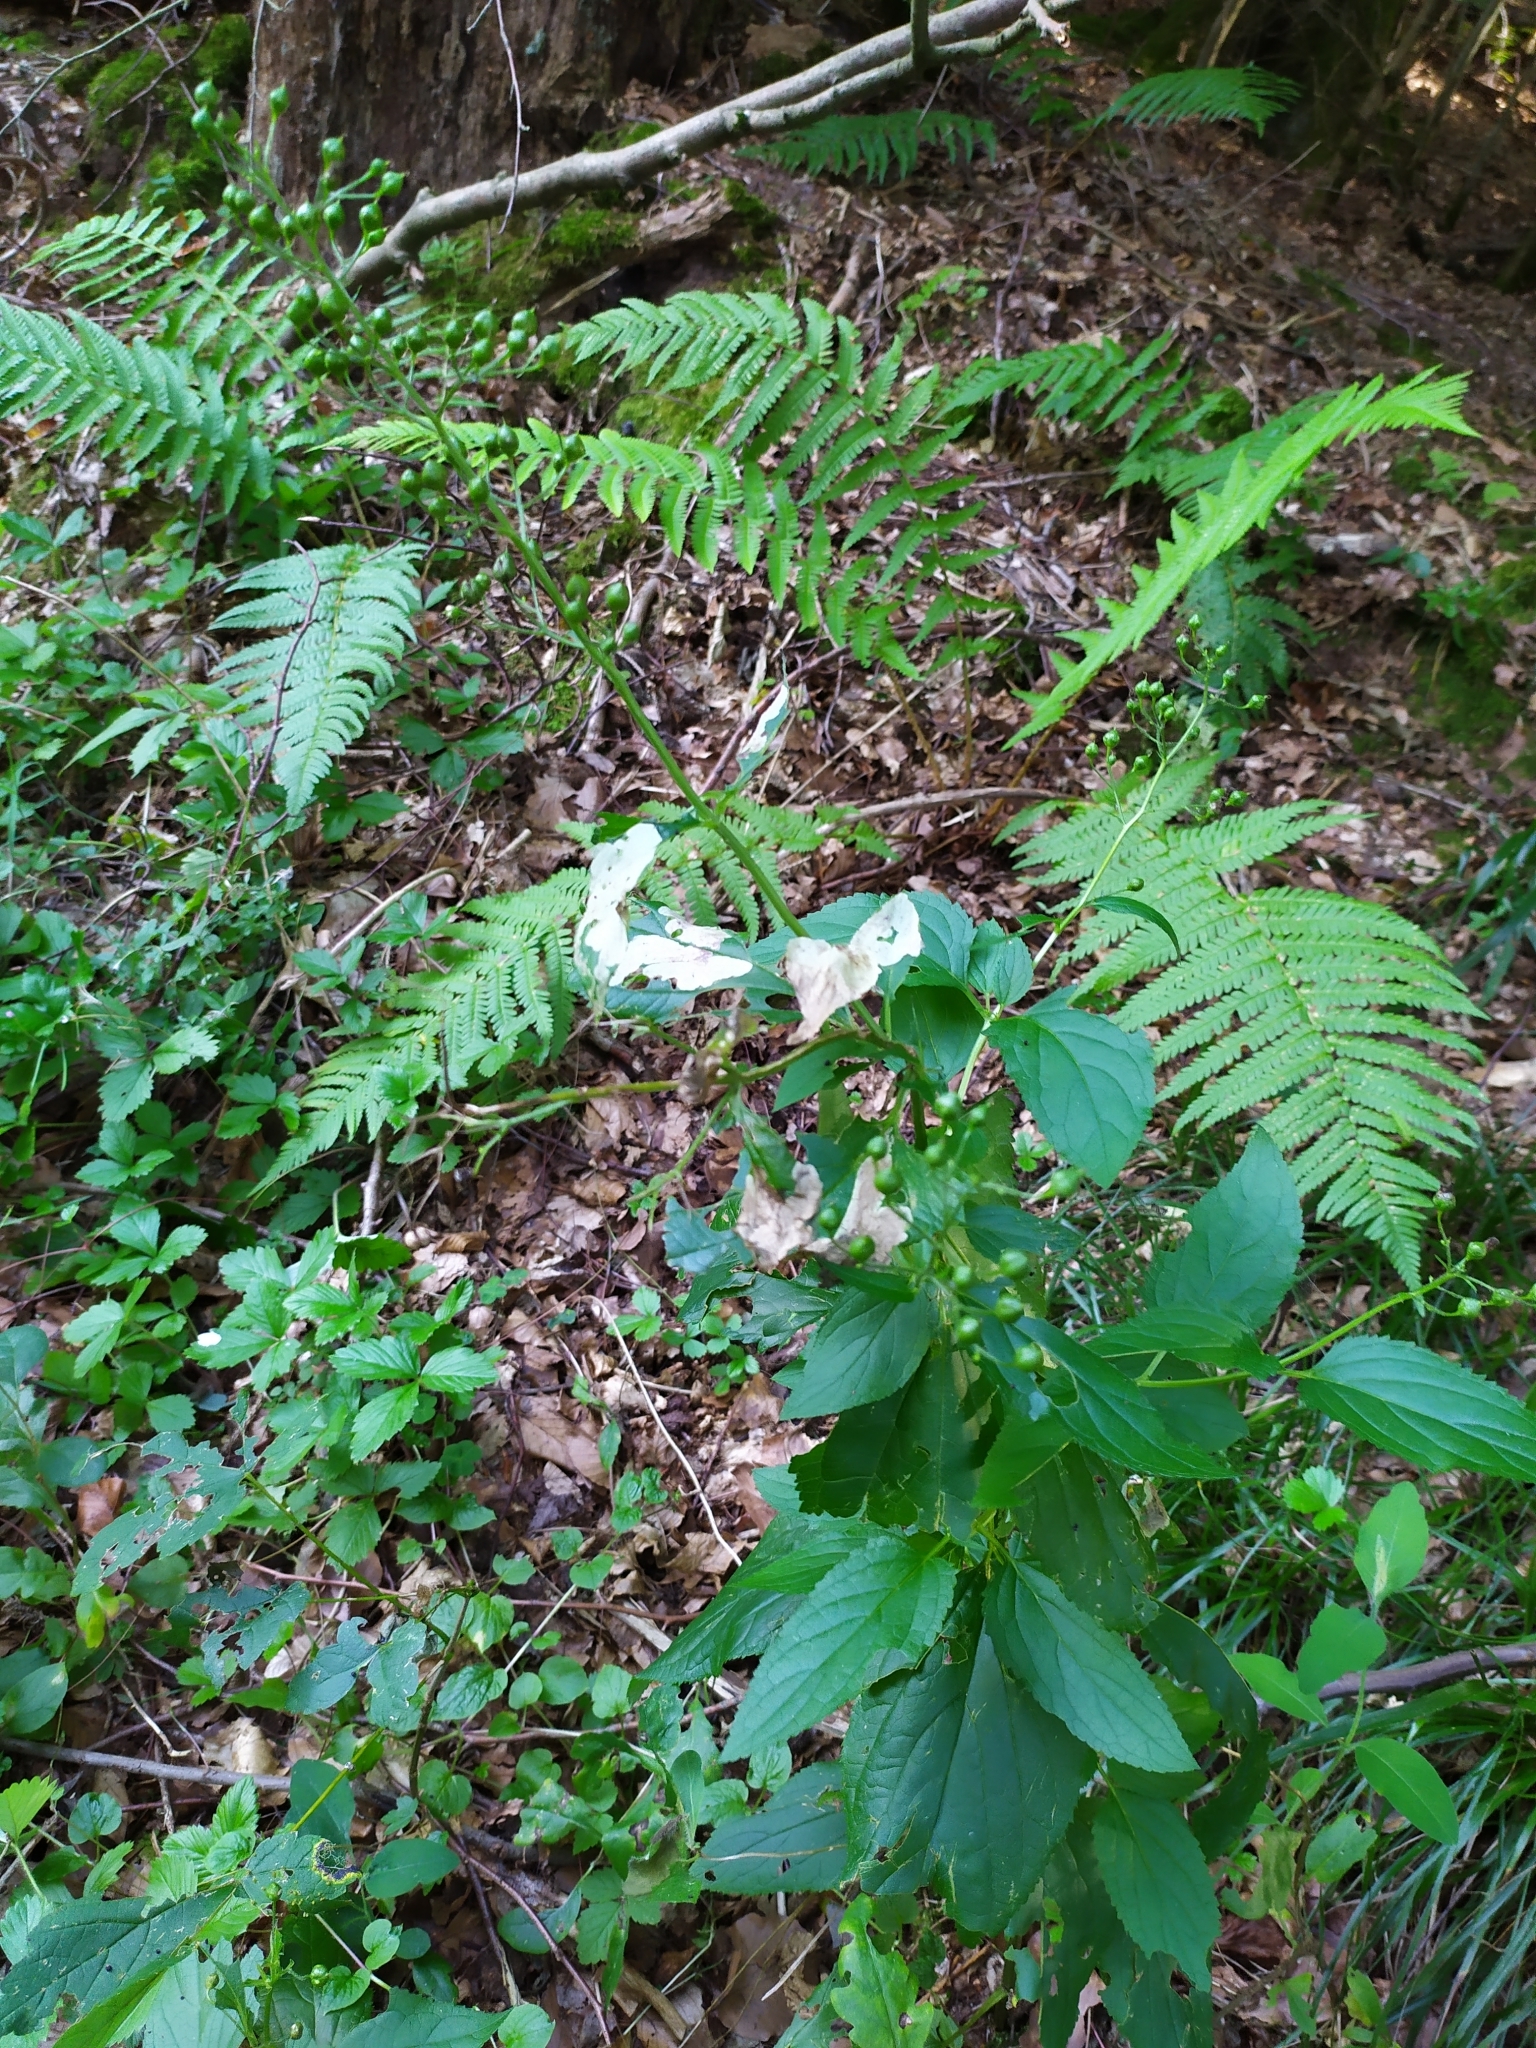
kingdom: Plantae
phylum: Tracheophyta
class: Magnoliopsida
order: Lamiales
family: Scrophulariaceae
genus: Scrophularia
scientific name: Scrophularia nodosa
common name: Common figwort
